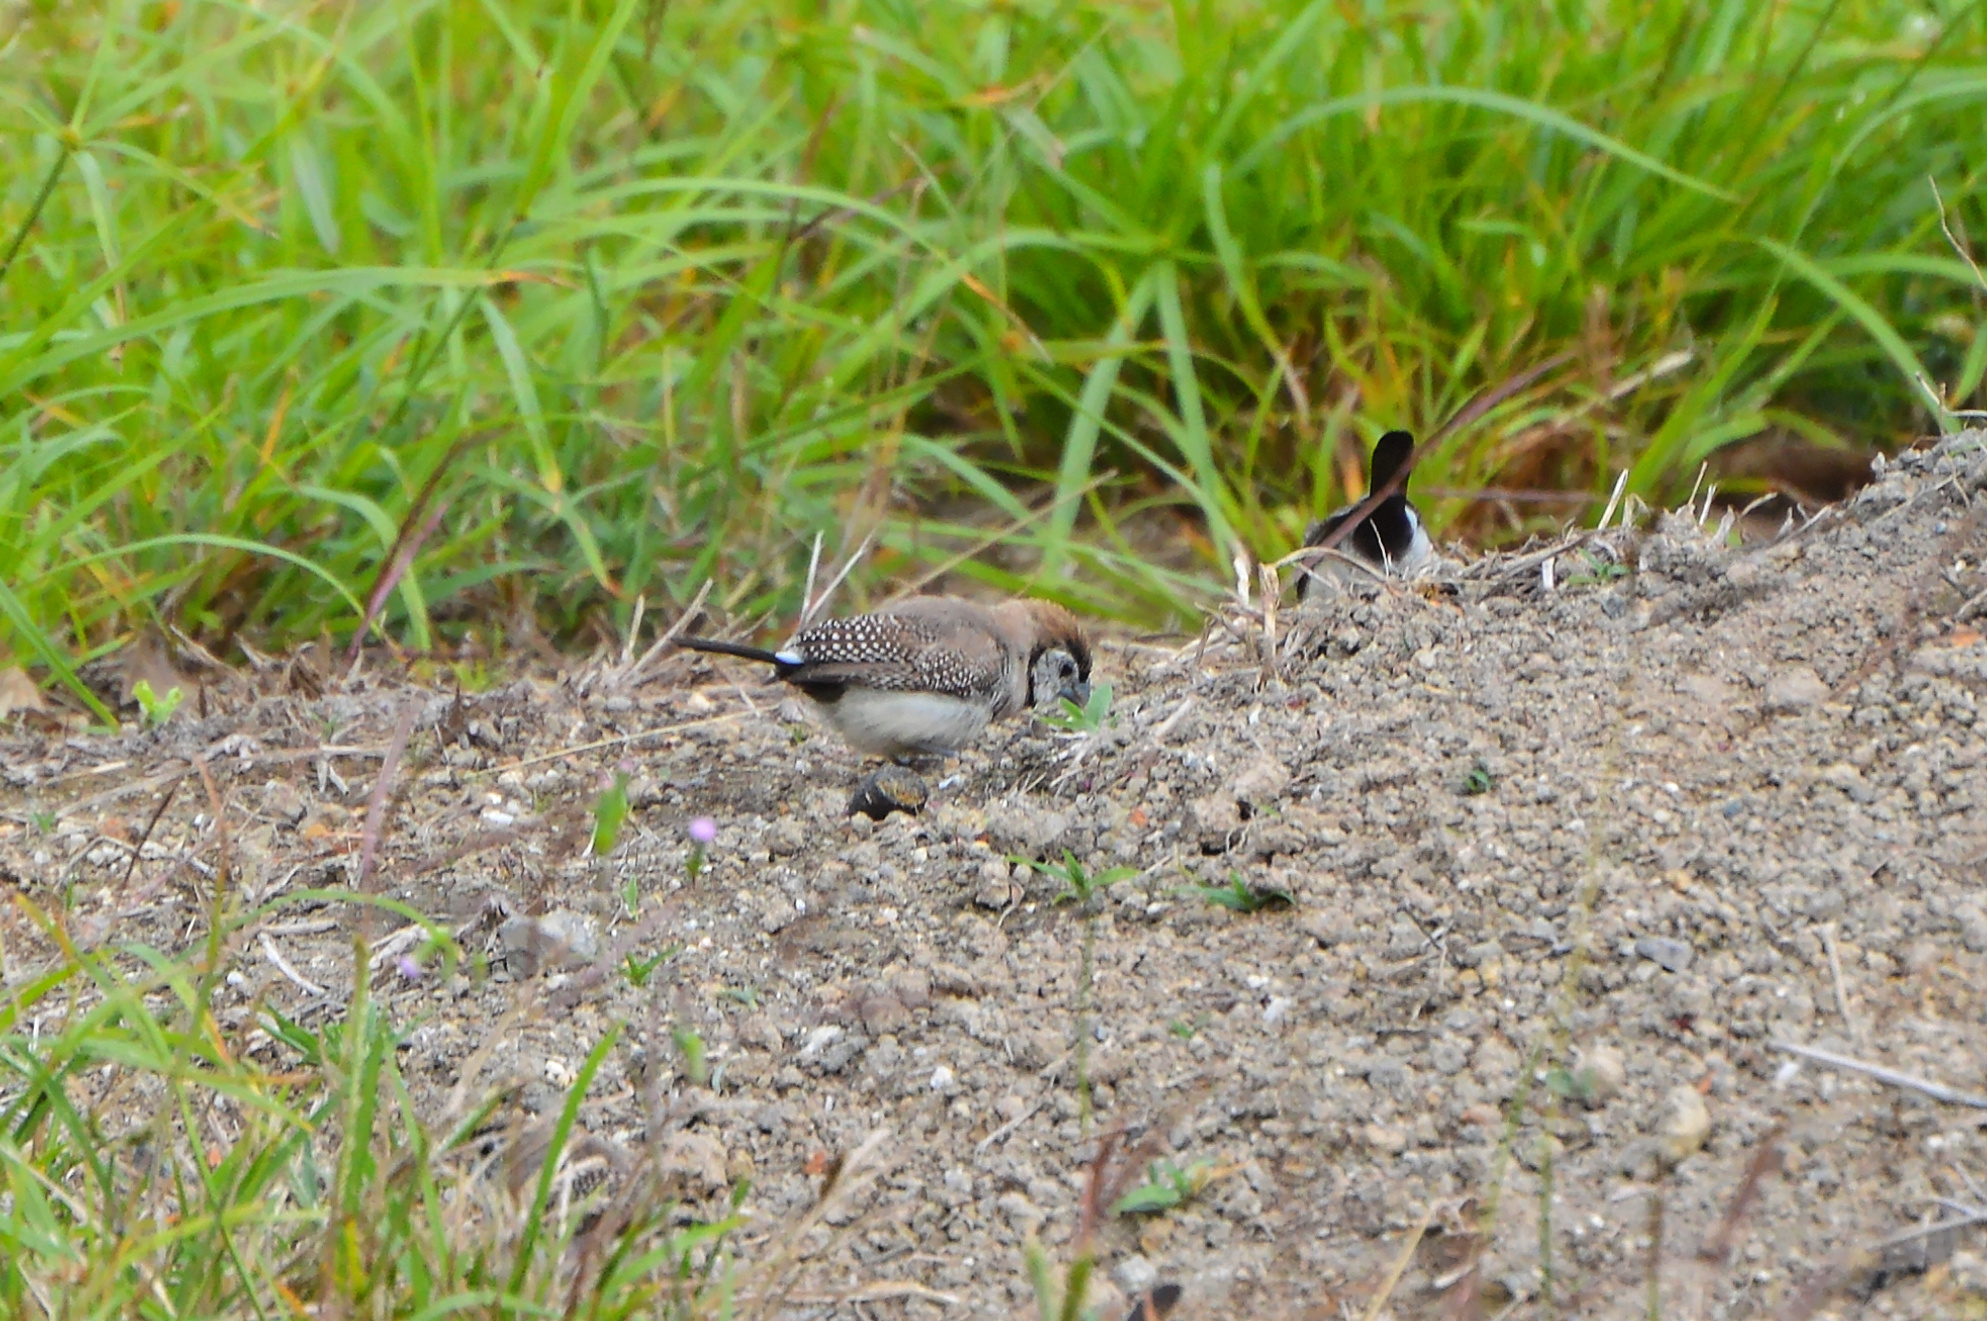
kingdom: Animalia
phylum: Chordata
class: Aves
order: Passeriformes
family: Estrildidae
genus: Taeniopygia
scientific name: Taeniopygia bichenovii
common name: Double-barred finch
